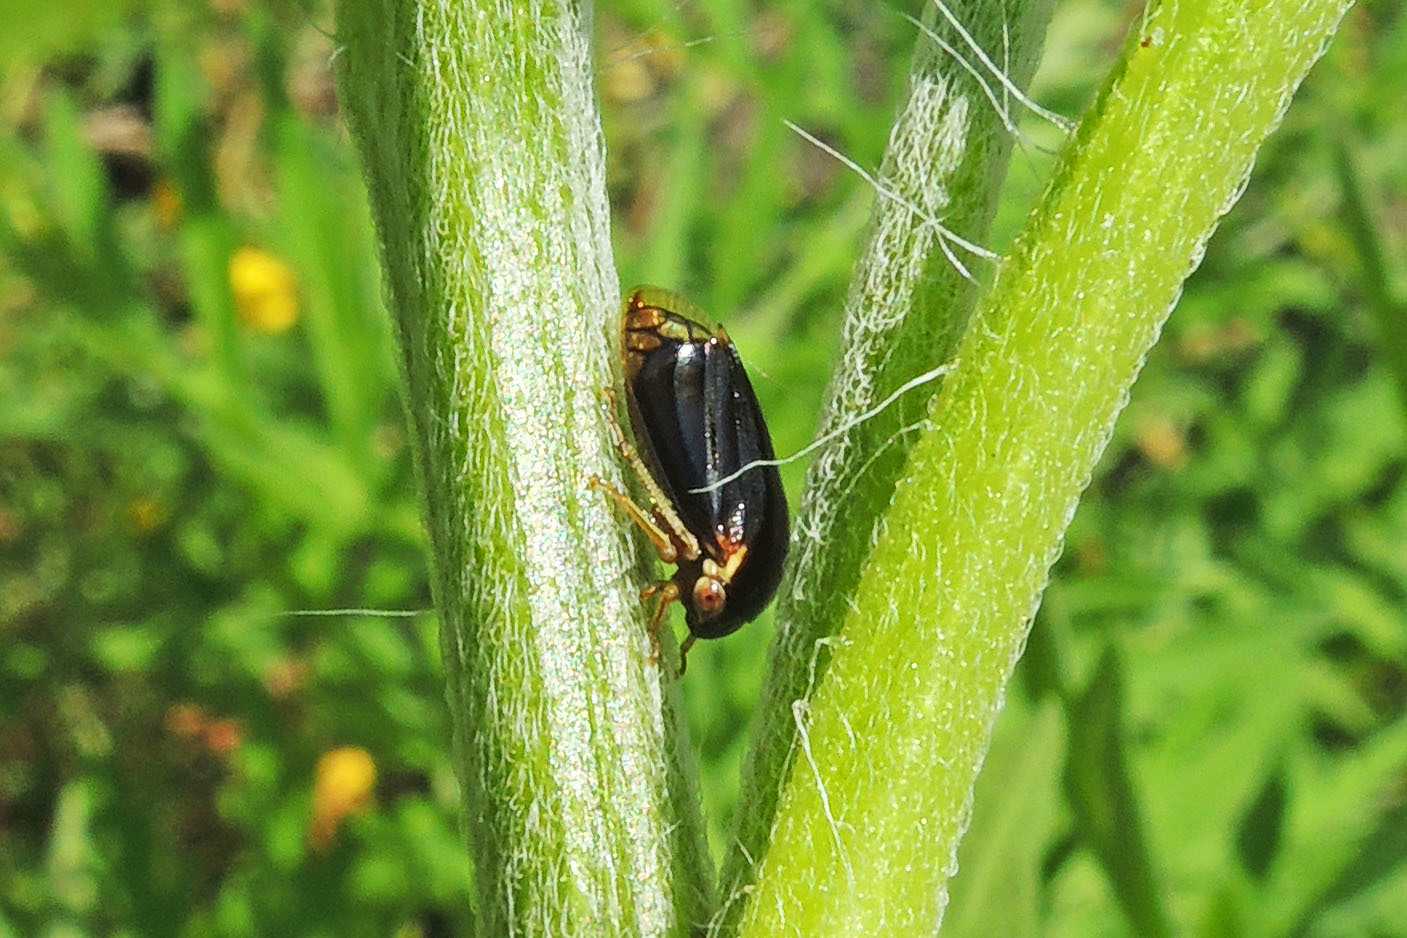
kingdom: Animalia
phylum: Arthropoda
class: Insecta
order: Hemiptera
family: Membracidae
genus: Acutalis
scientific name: Acutalis tartarea
